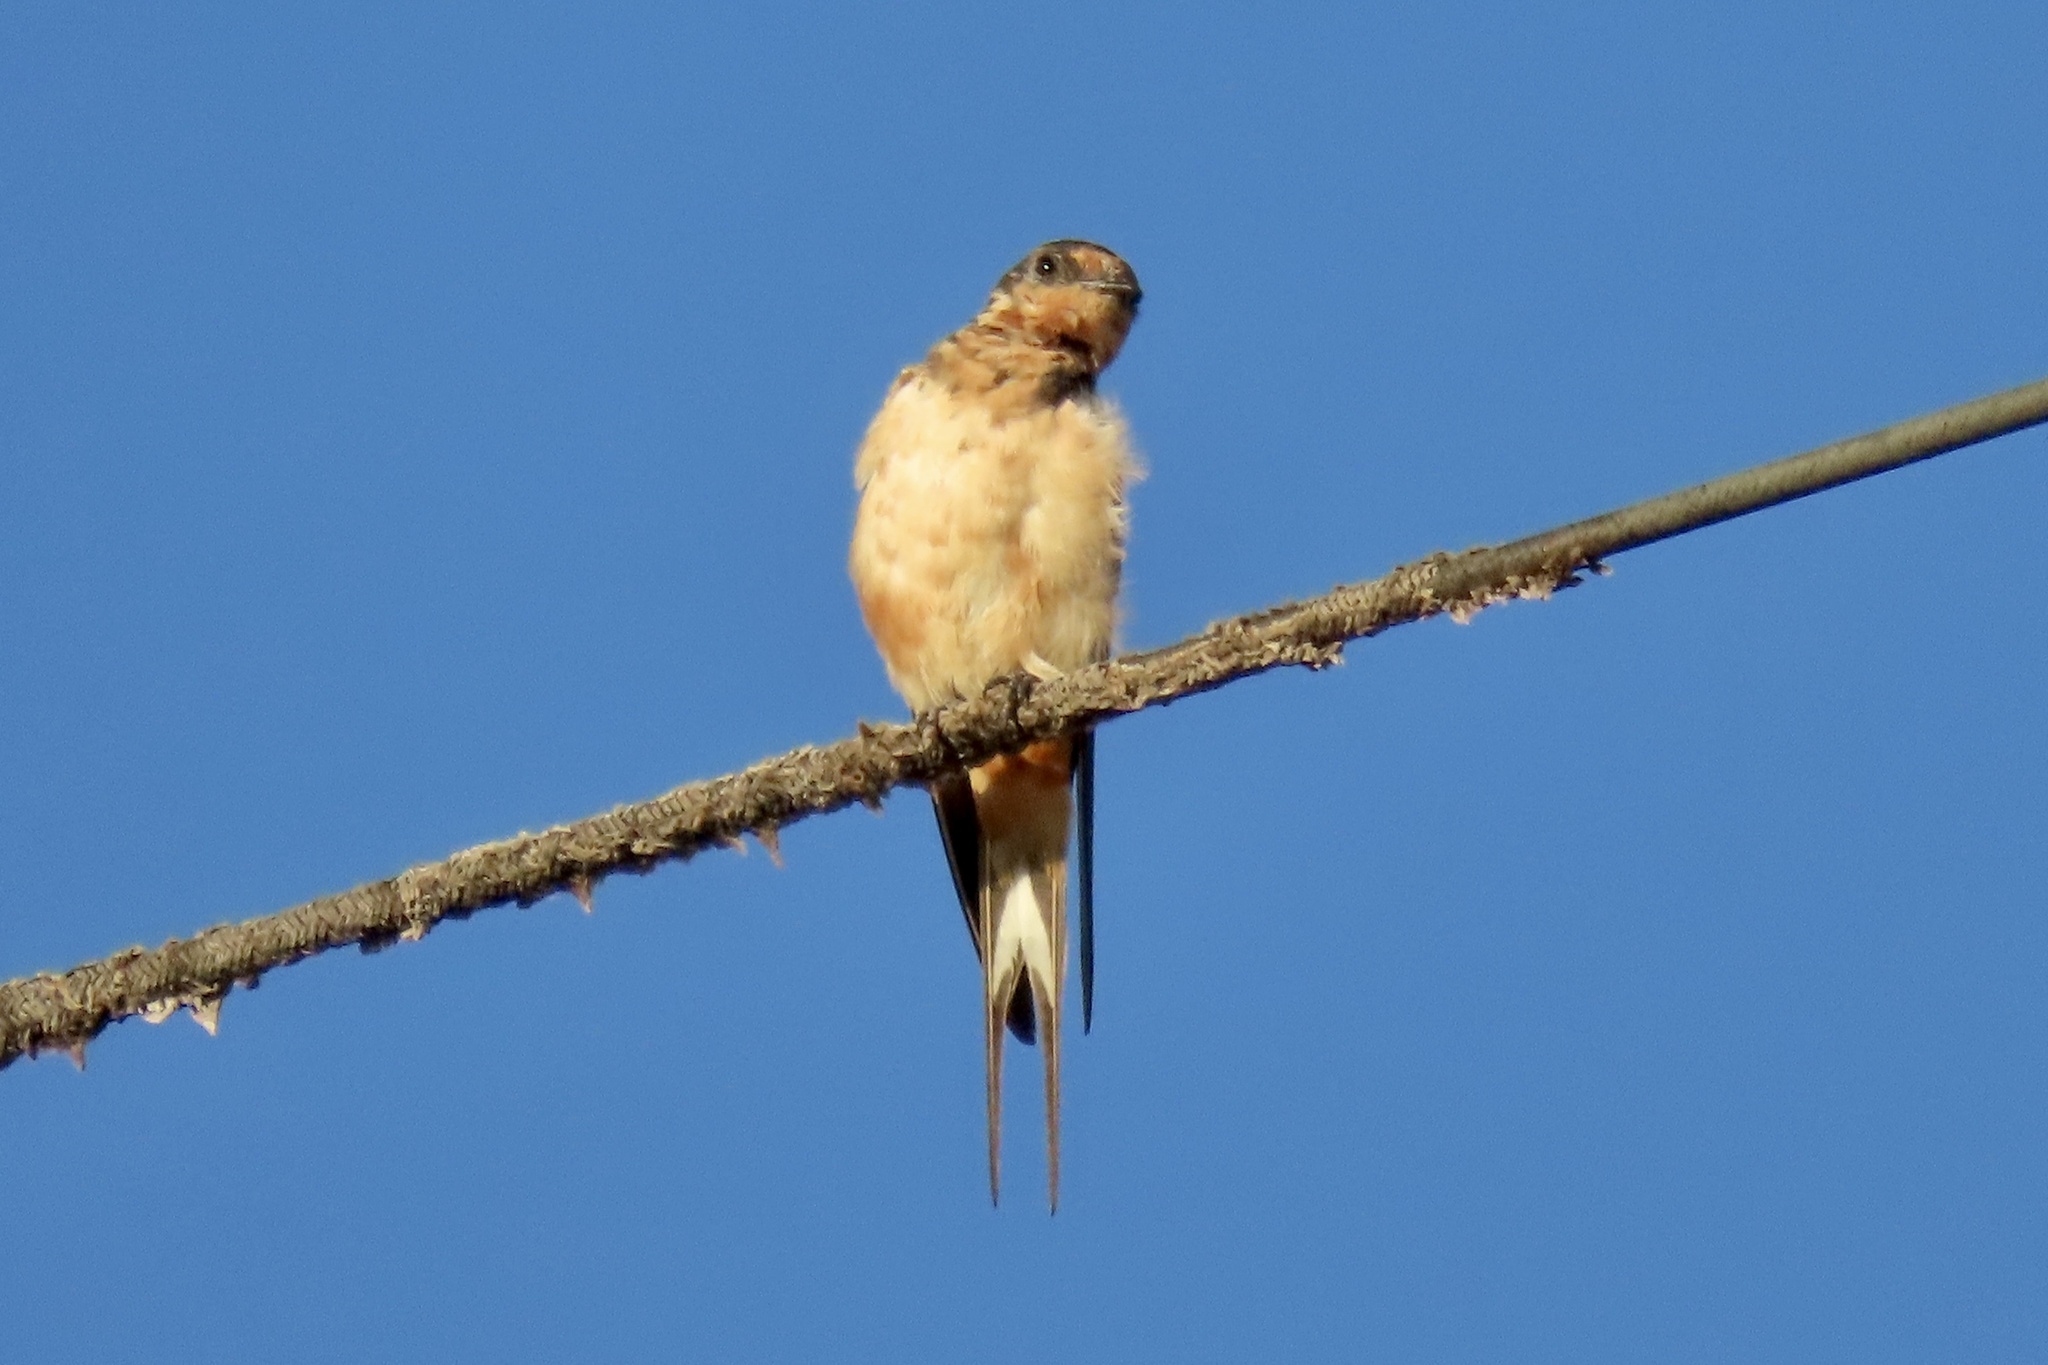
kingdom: Animalia
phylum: Chordata
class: Aves
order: Passeriformes
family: Hirundinidae
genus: Hirundo
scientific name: Hirundo rustica
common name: Barn swallow
